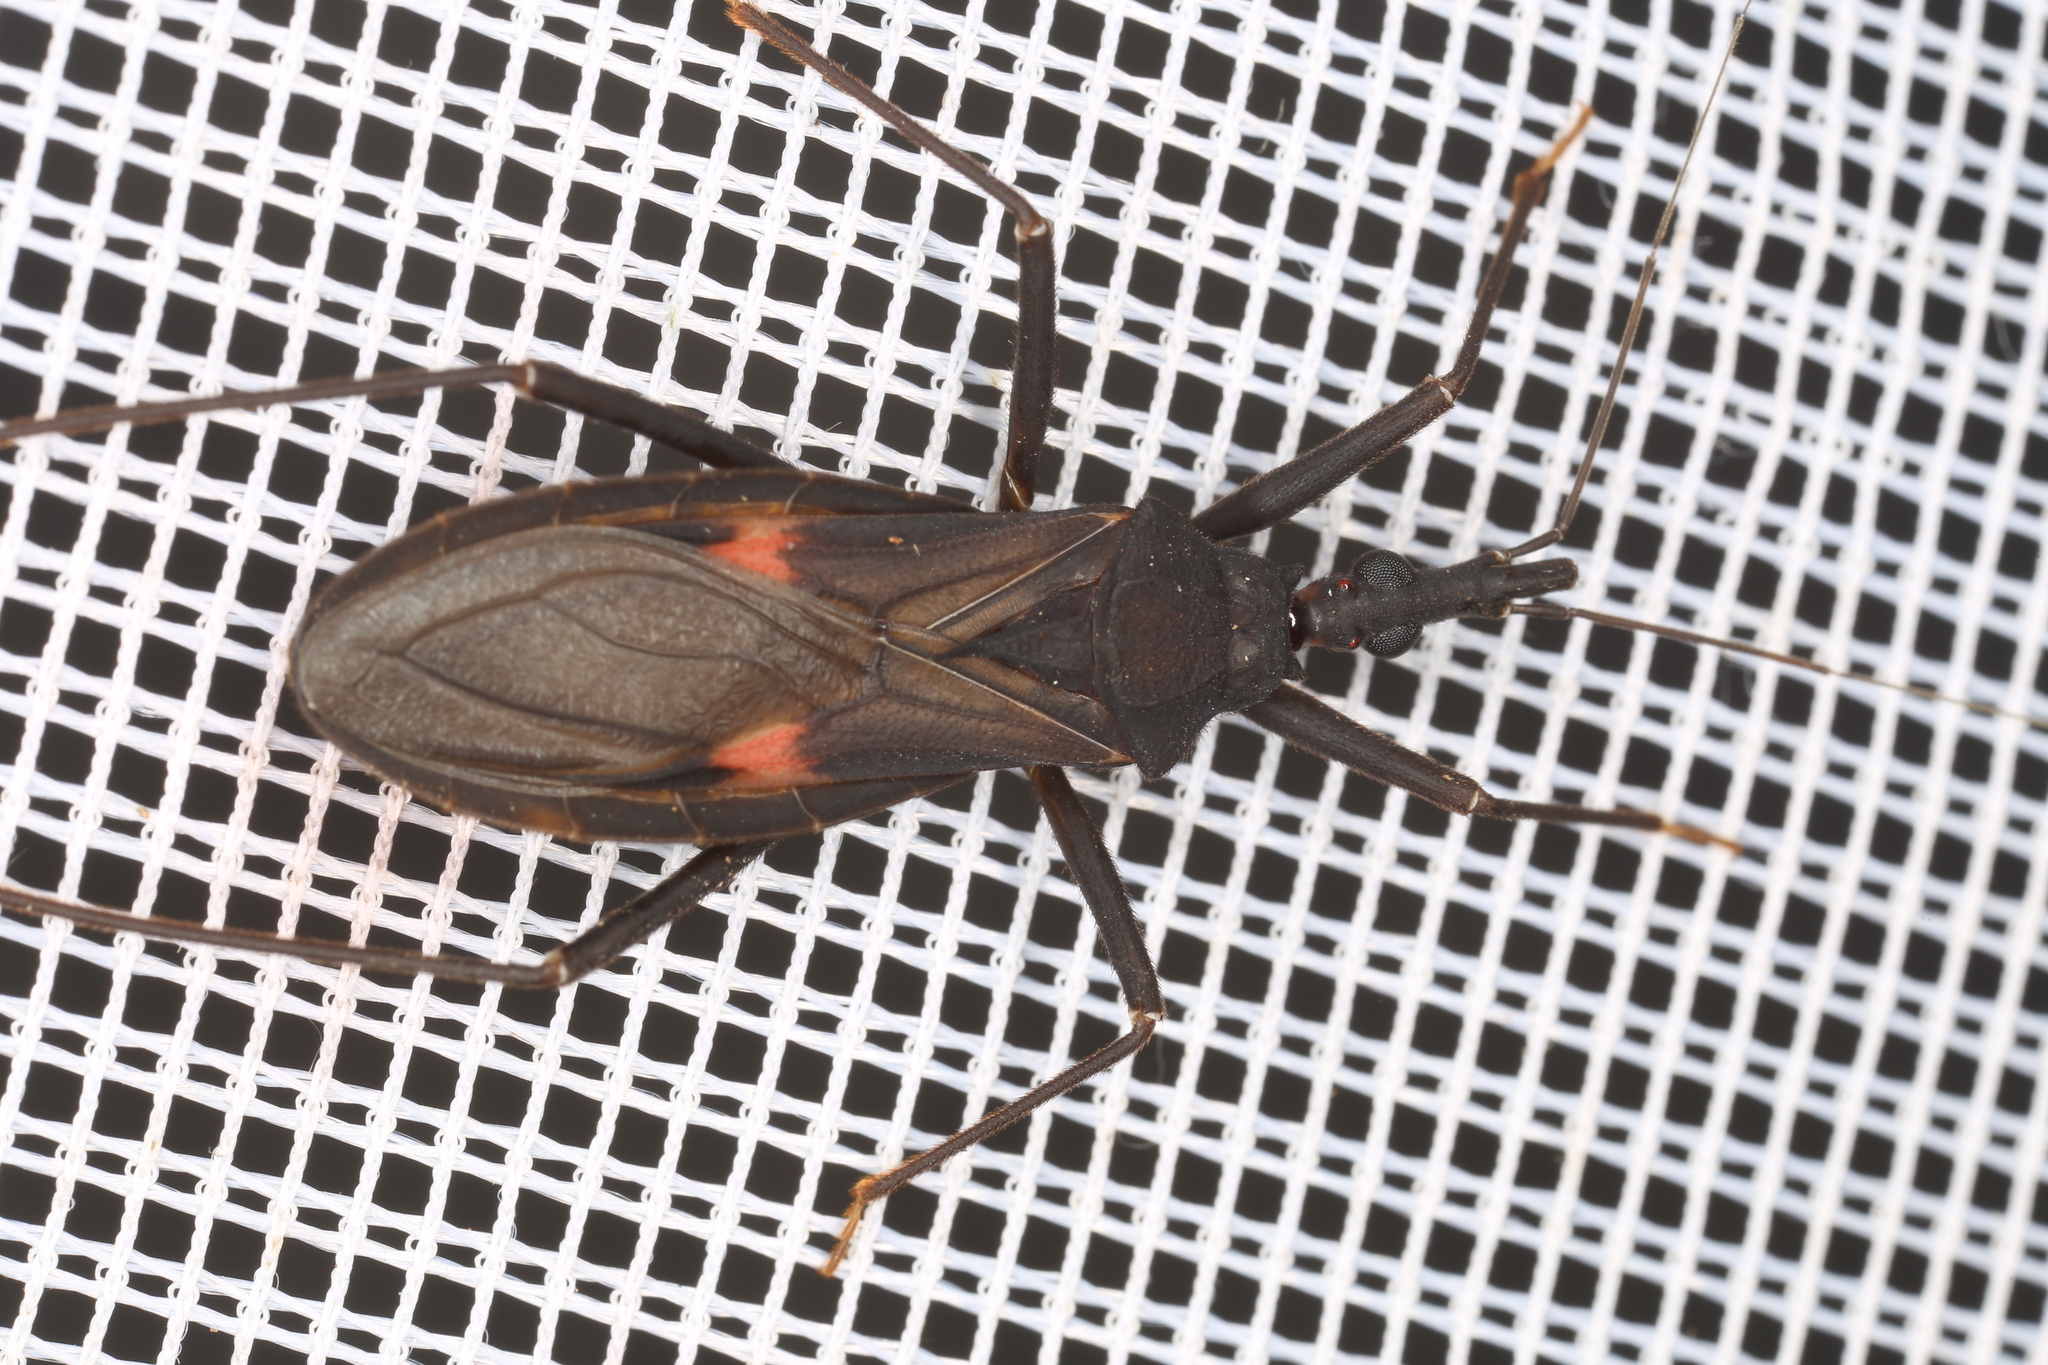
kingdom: Animalia
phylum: Arthropoda
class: Insecta
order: Hemiptera
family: Reduviidae
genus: Eratyrus
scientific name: Eratyrus cuspidatus
